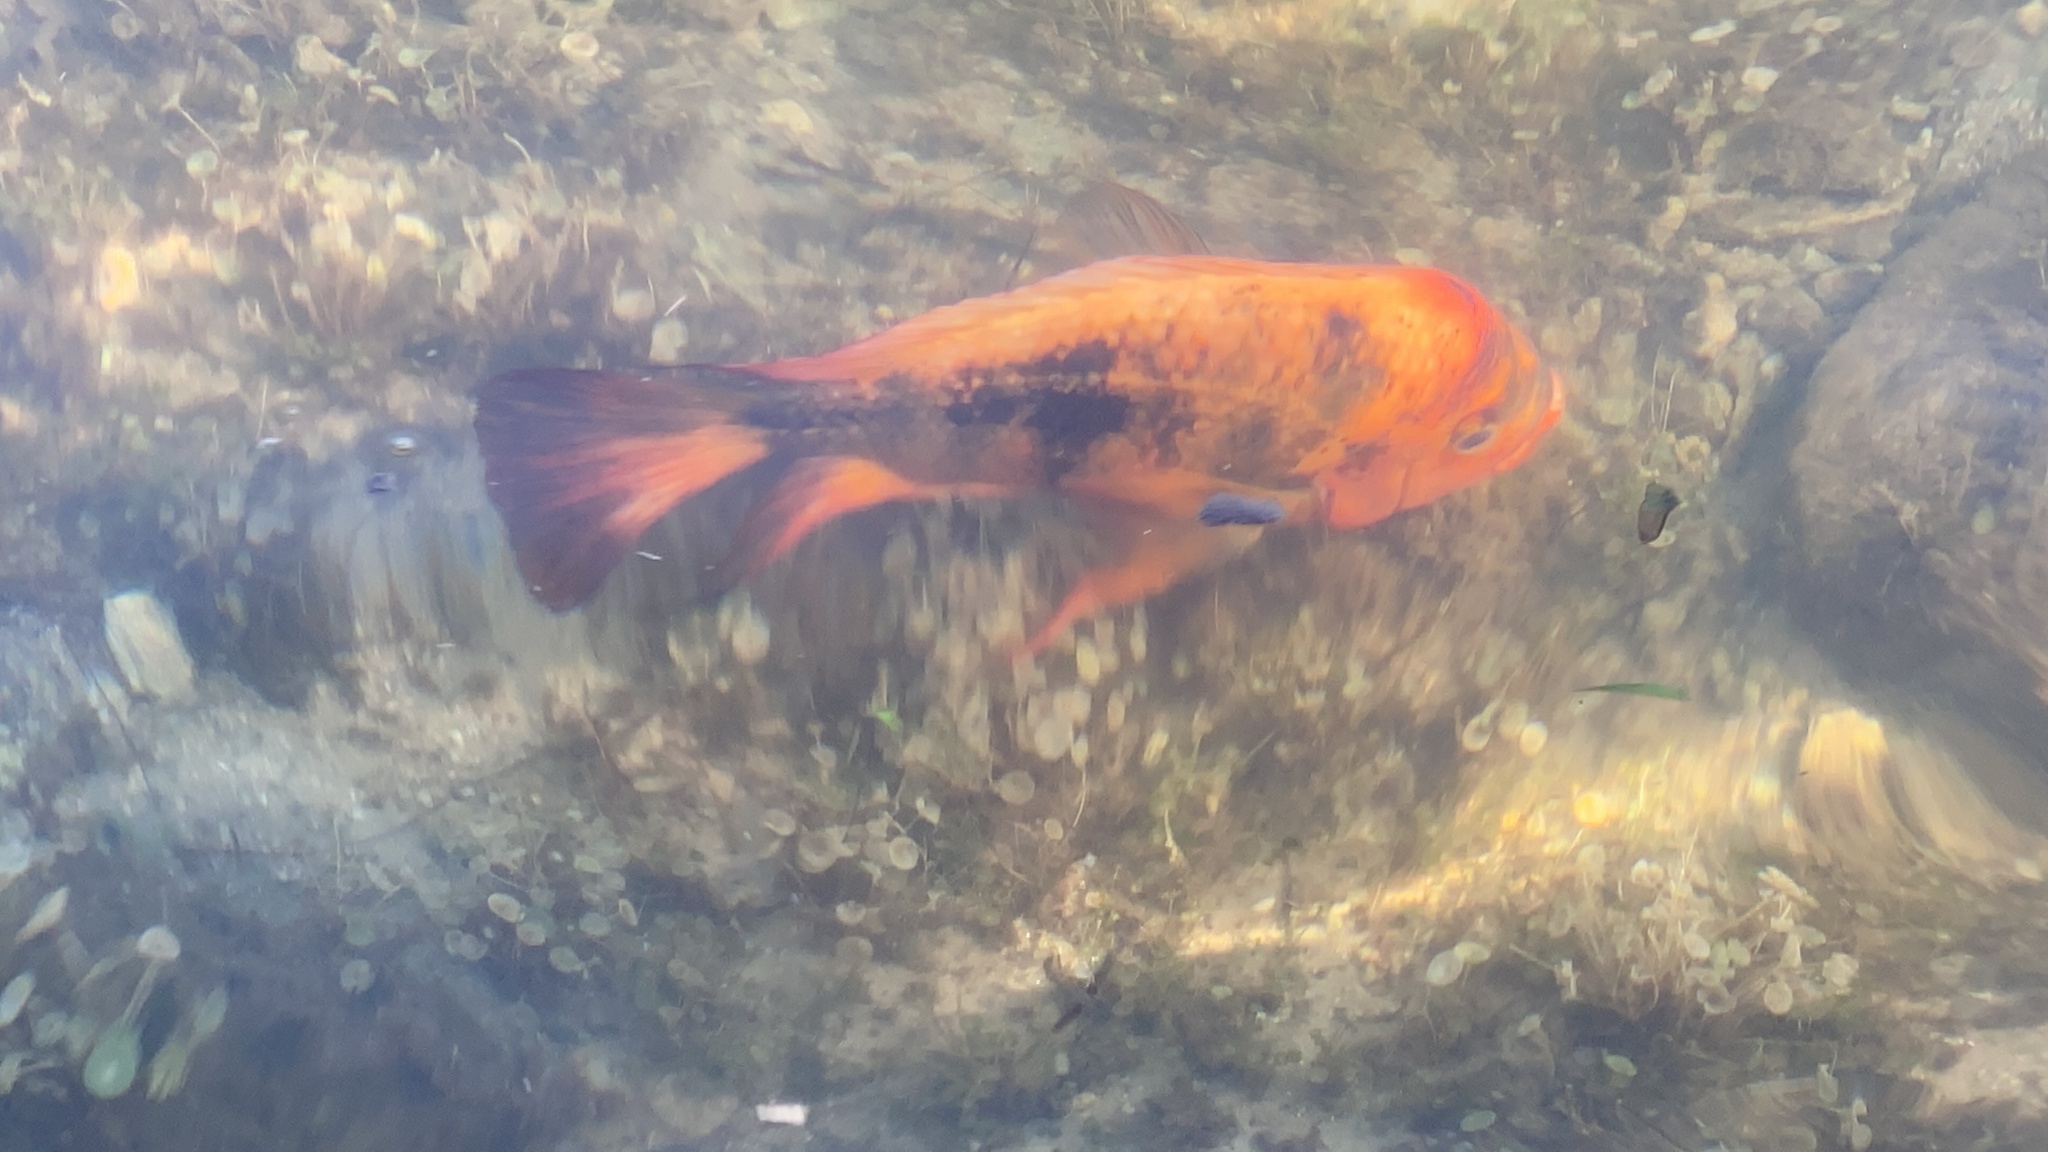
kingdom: Animalia
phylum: Chordata
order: Perciformes
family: Cichlidae
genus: Amphilophus
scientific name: Amphilophus
